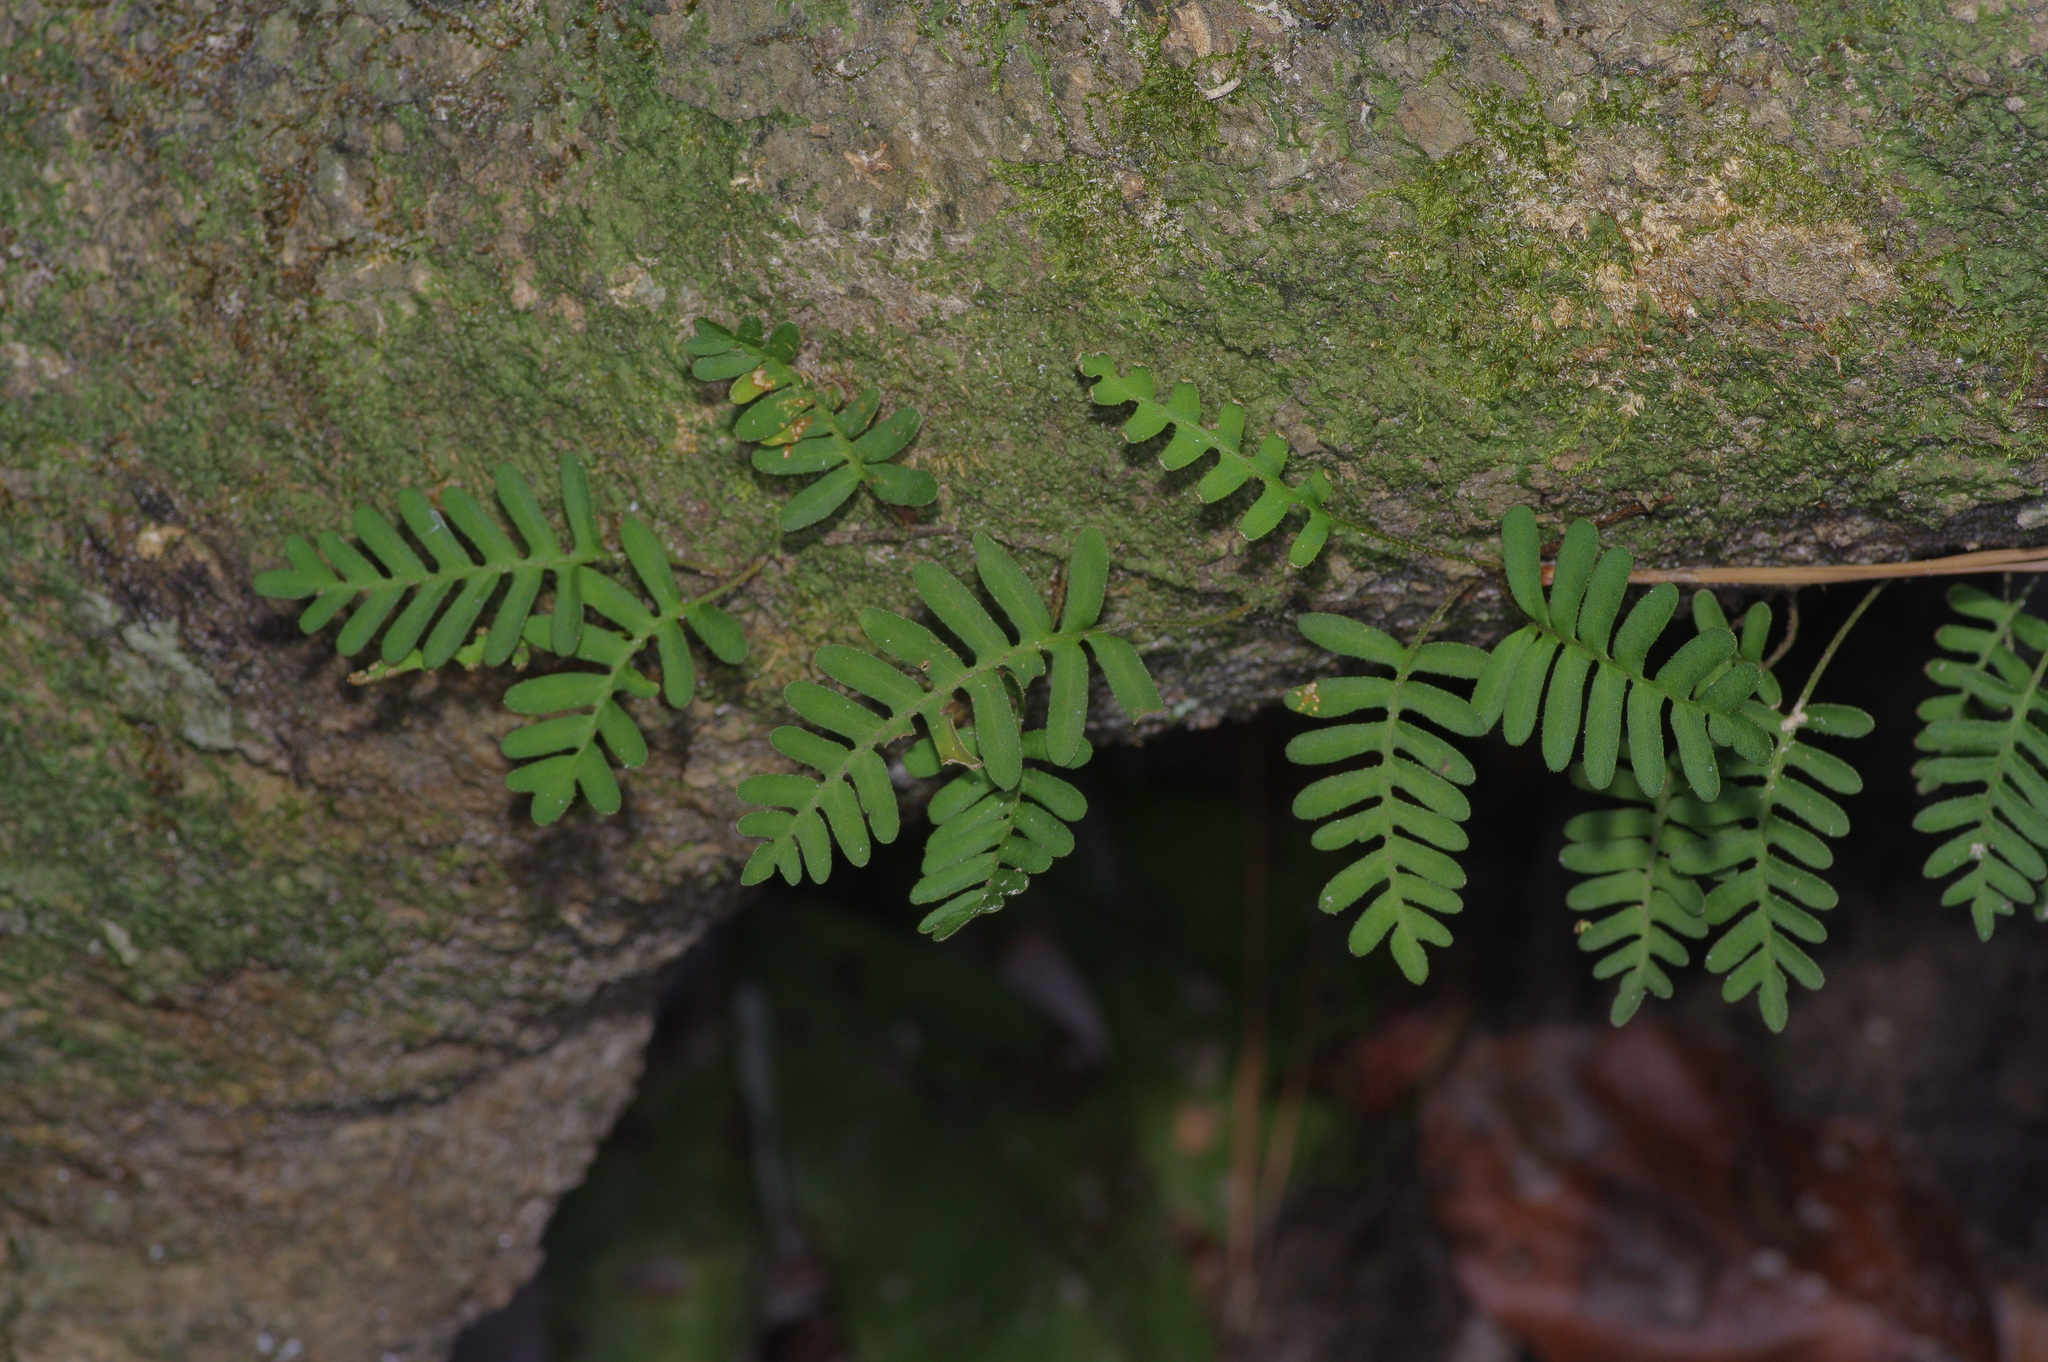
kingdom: Plantae
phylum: Tracheophyta
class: Polypodiopsida
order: Polypodiales
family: Polypodiaceae
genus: Pleopeltis
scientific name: Pleopeltis michauxiana
